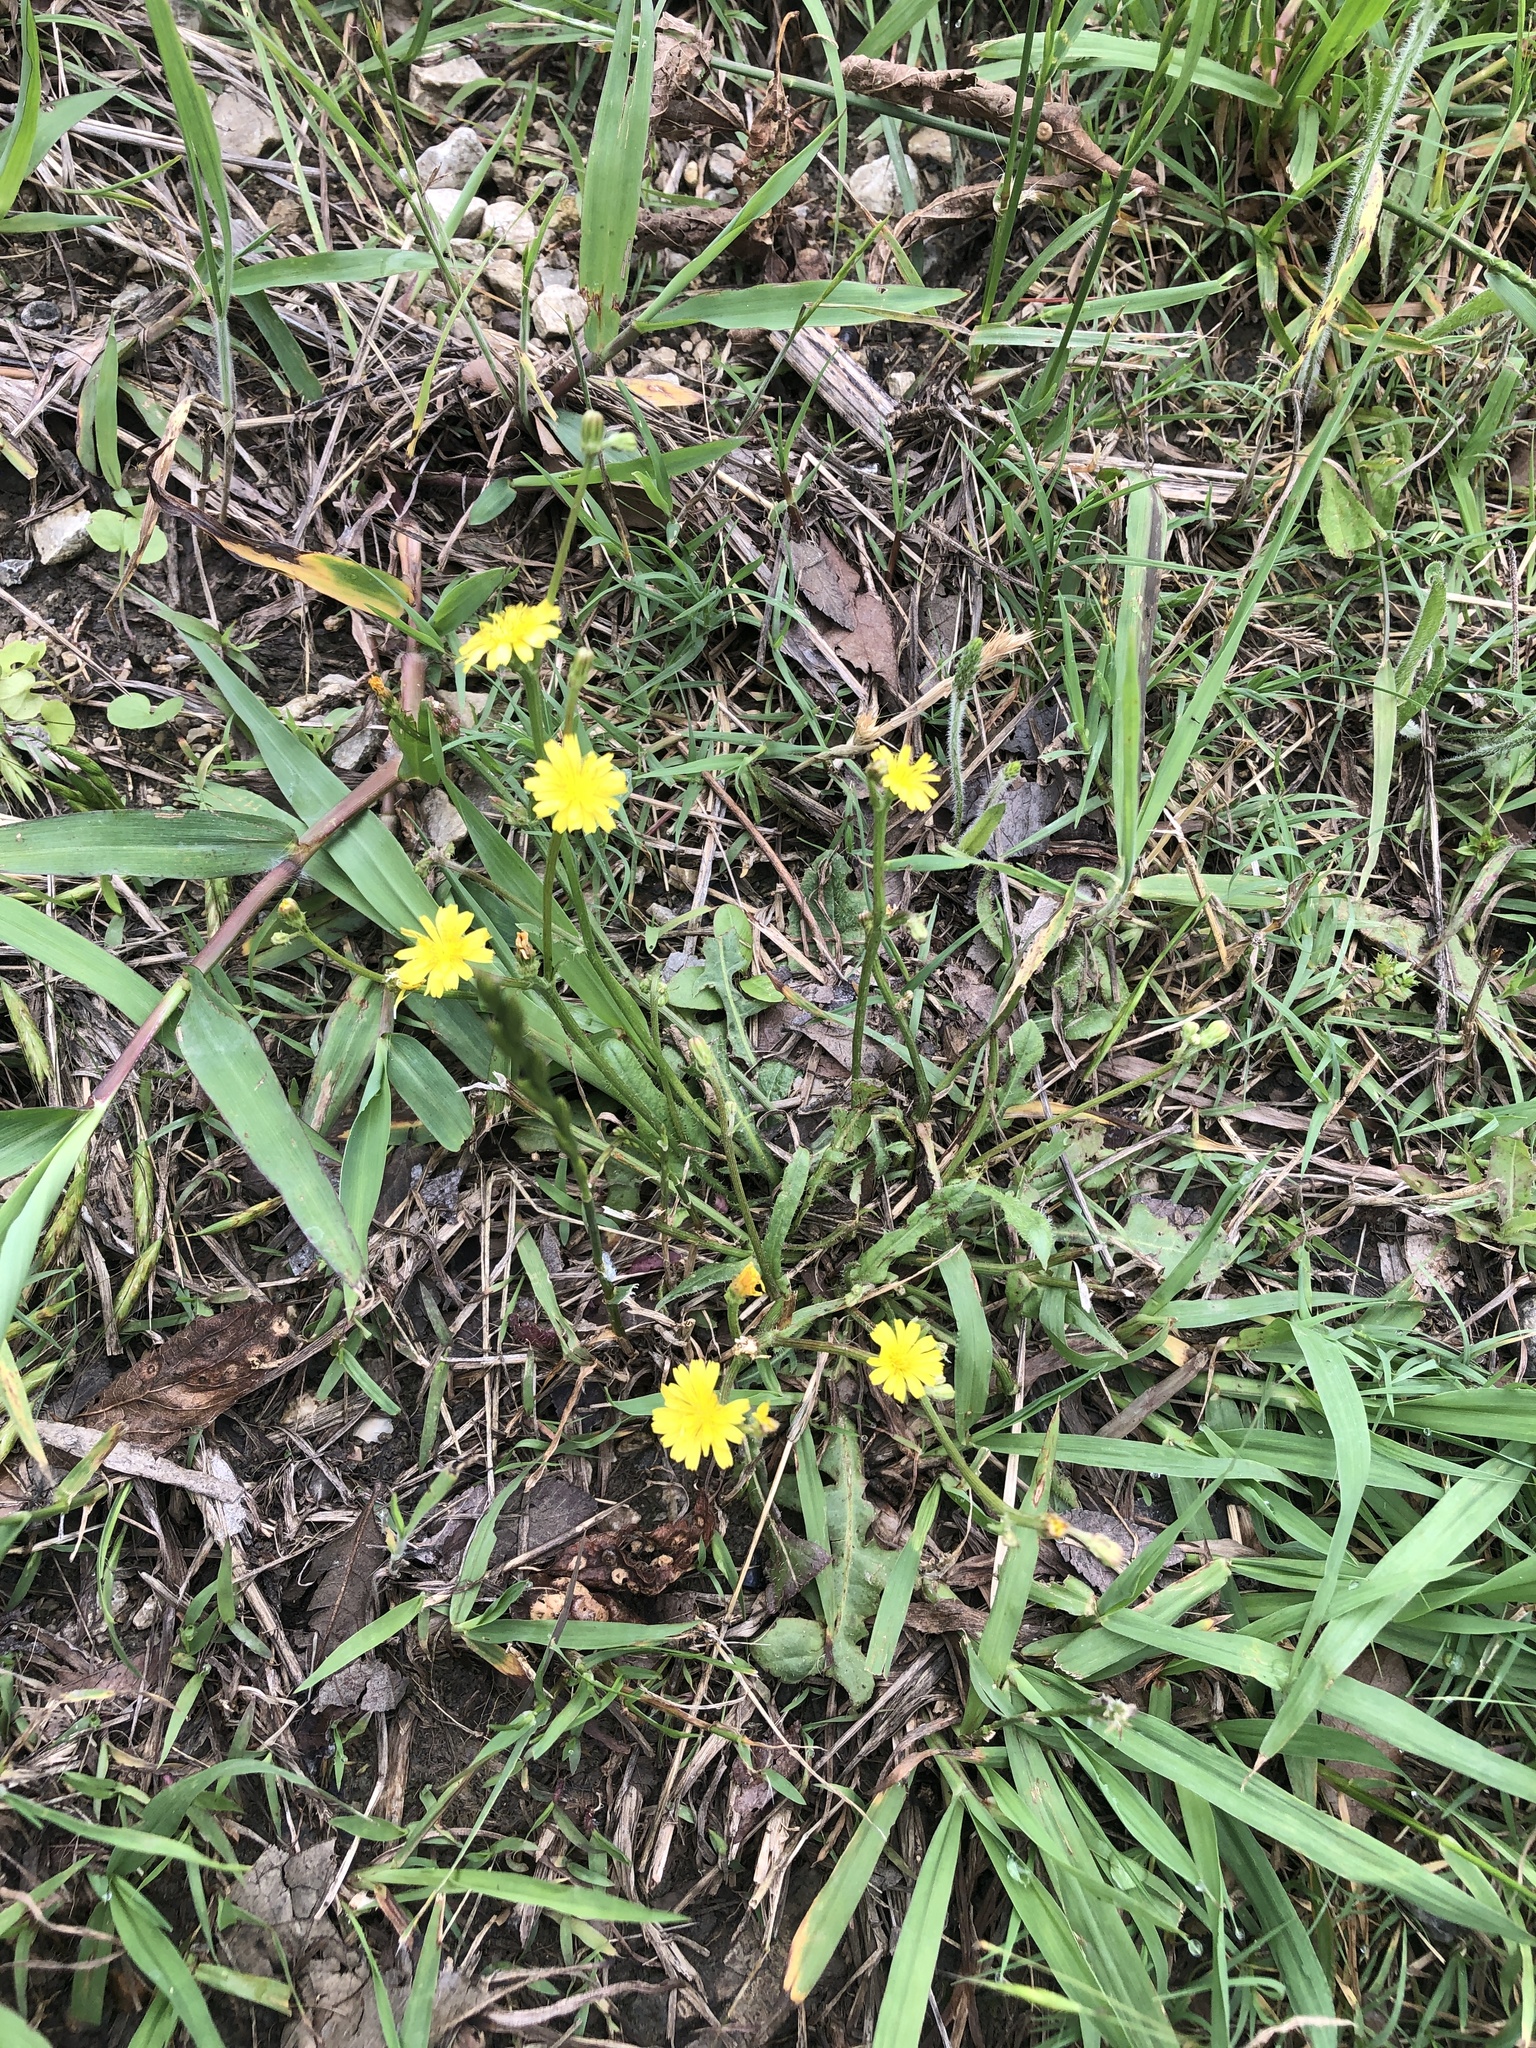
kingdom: Plantae
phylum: Tracheophyta
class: Magnoliopsida
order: Asterales
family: Asteraceae
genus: Crepis
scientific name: Crepis zacintha
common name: Striped hawksbeard
